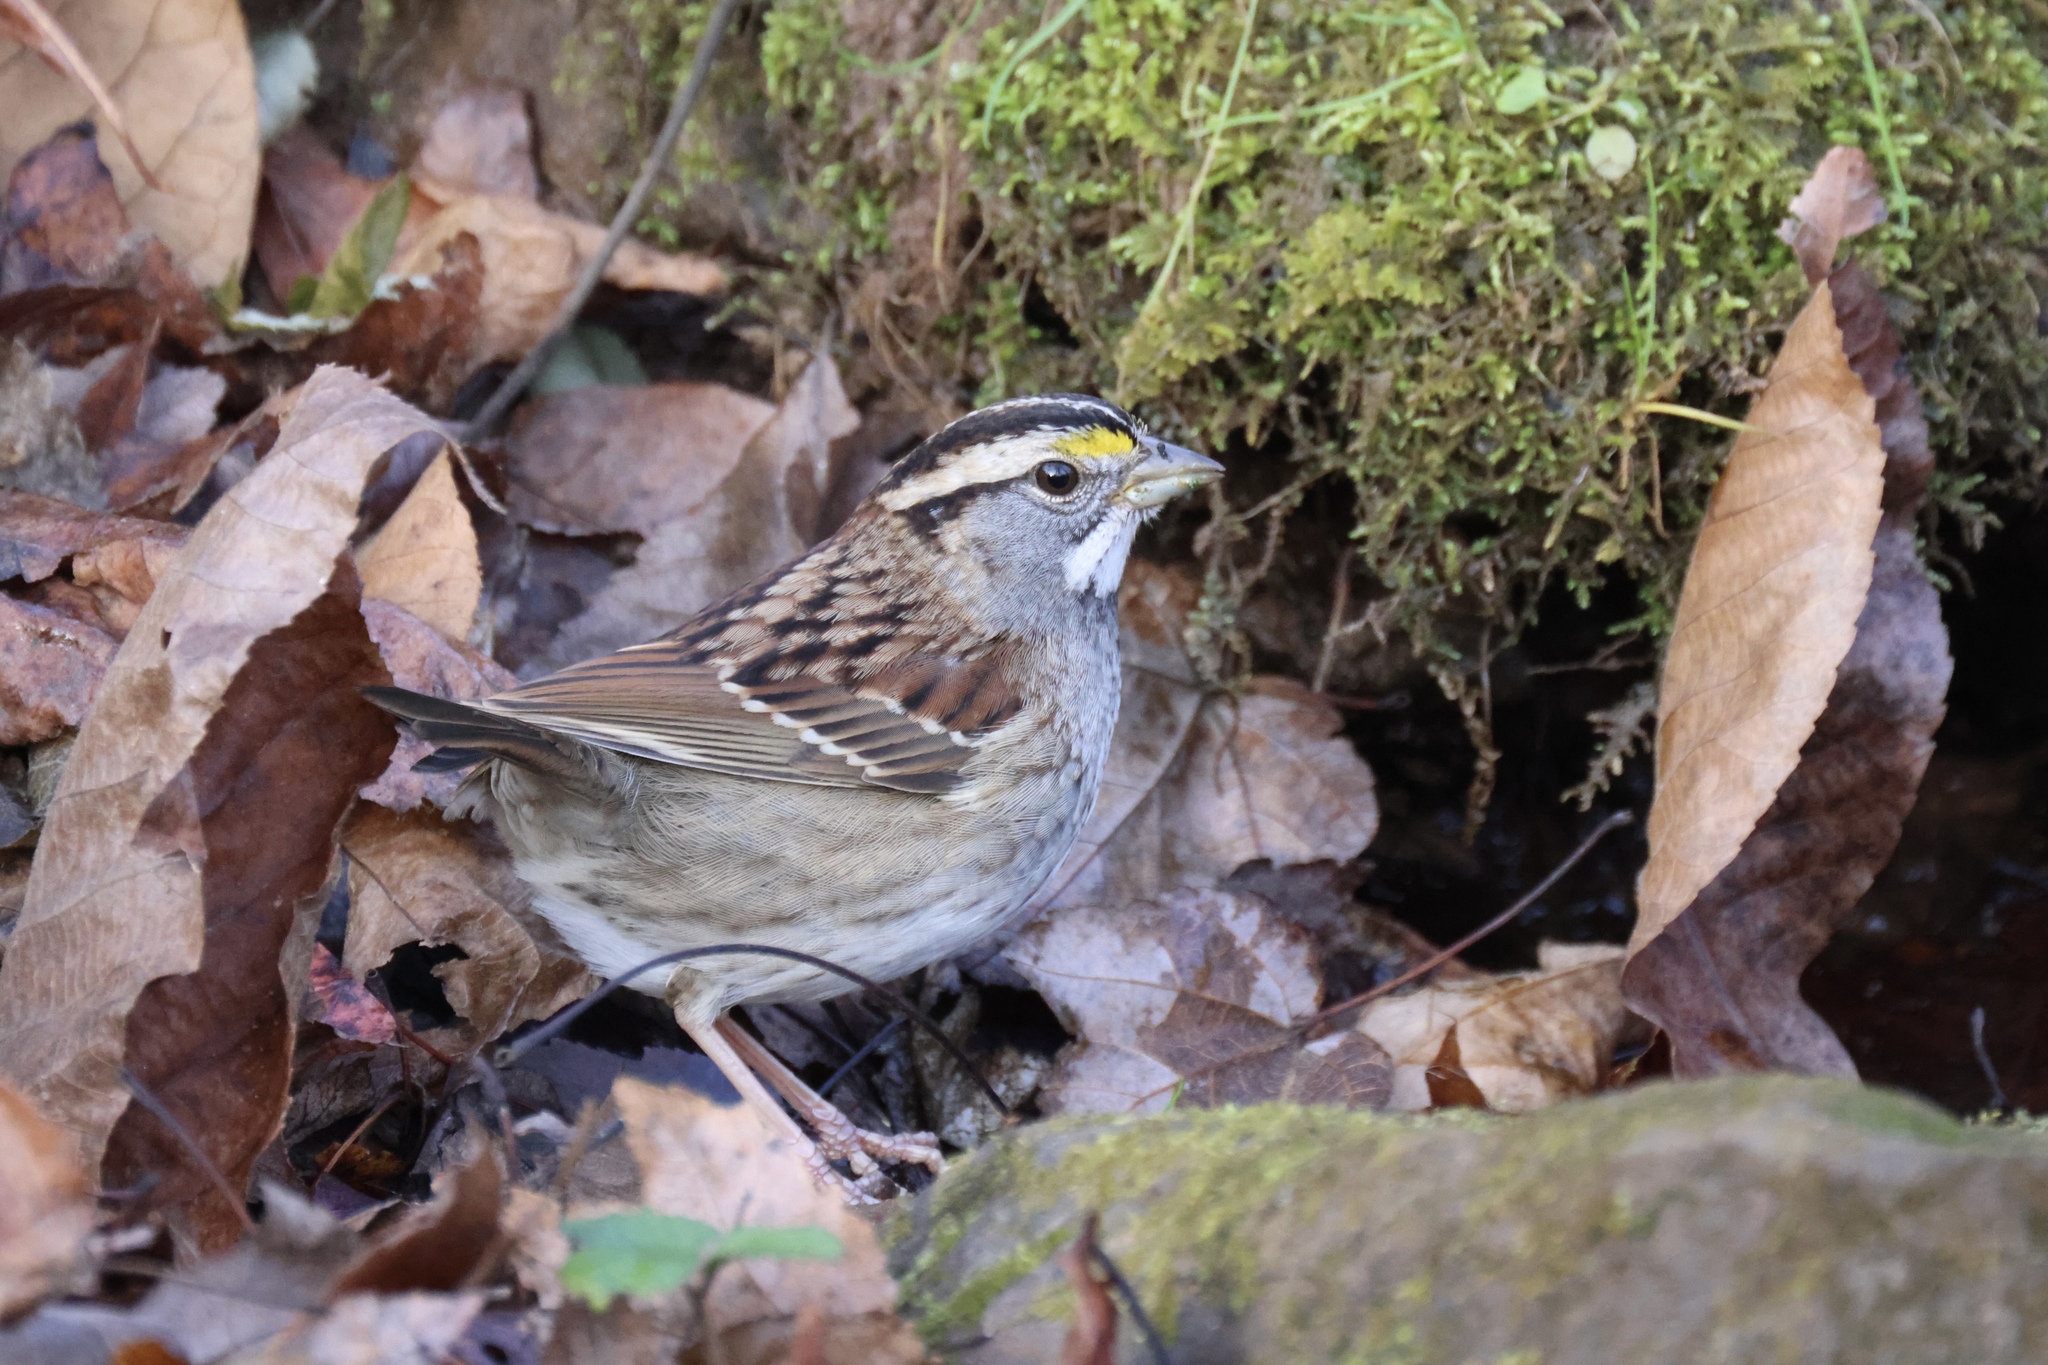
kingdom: Animalia
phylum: Chordata
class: Aves
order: Passeriformes
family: Passerellidae
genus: Zonotrichia
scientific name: Zonotrichia albicollis
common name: White-throated sparrow
